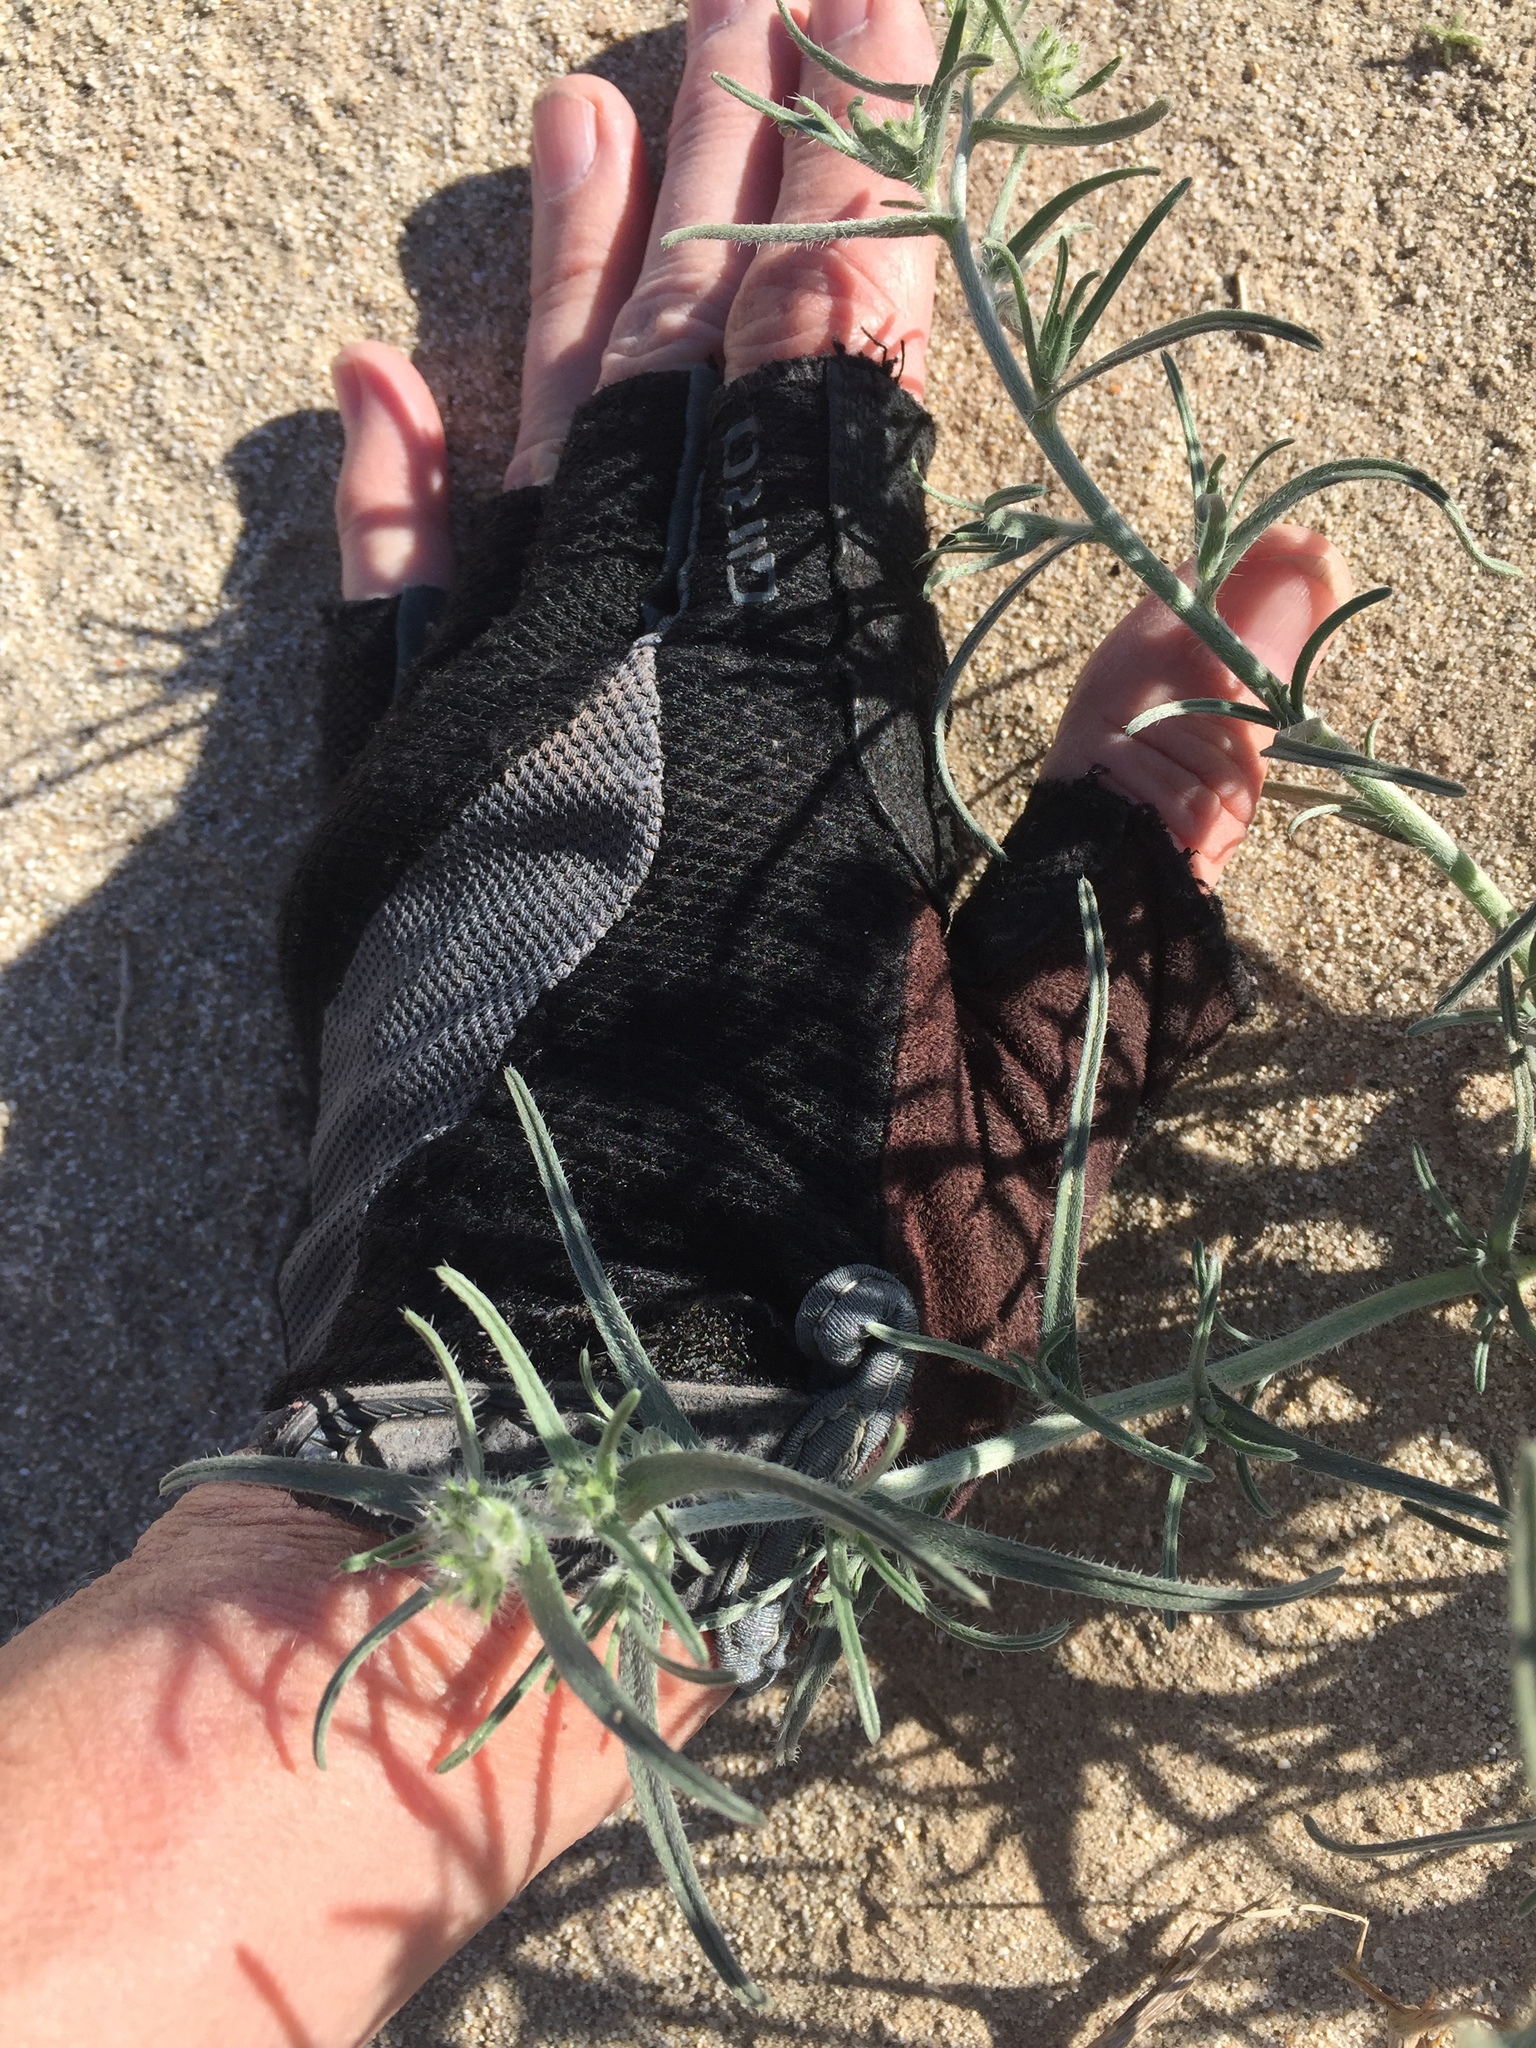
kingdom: Plantae
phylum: Tracheophyta
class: Magnoliopsida
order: Boraginales
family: Boraginaceae
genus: Johnstonella
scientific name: Johnstonella costata
